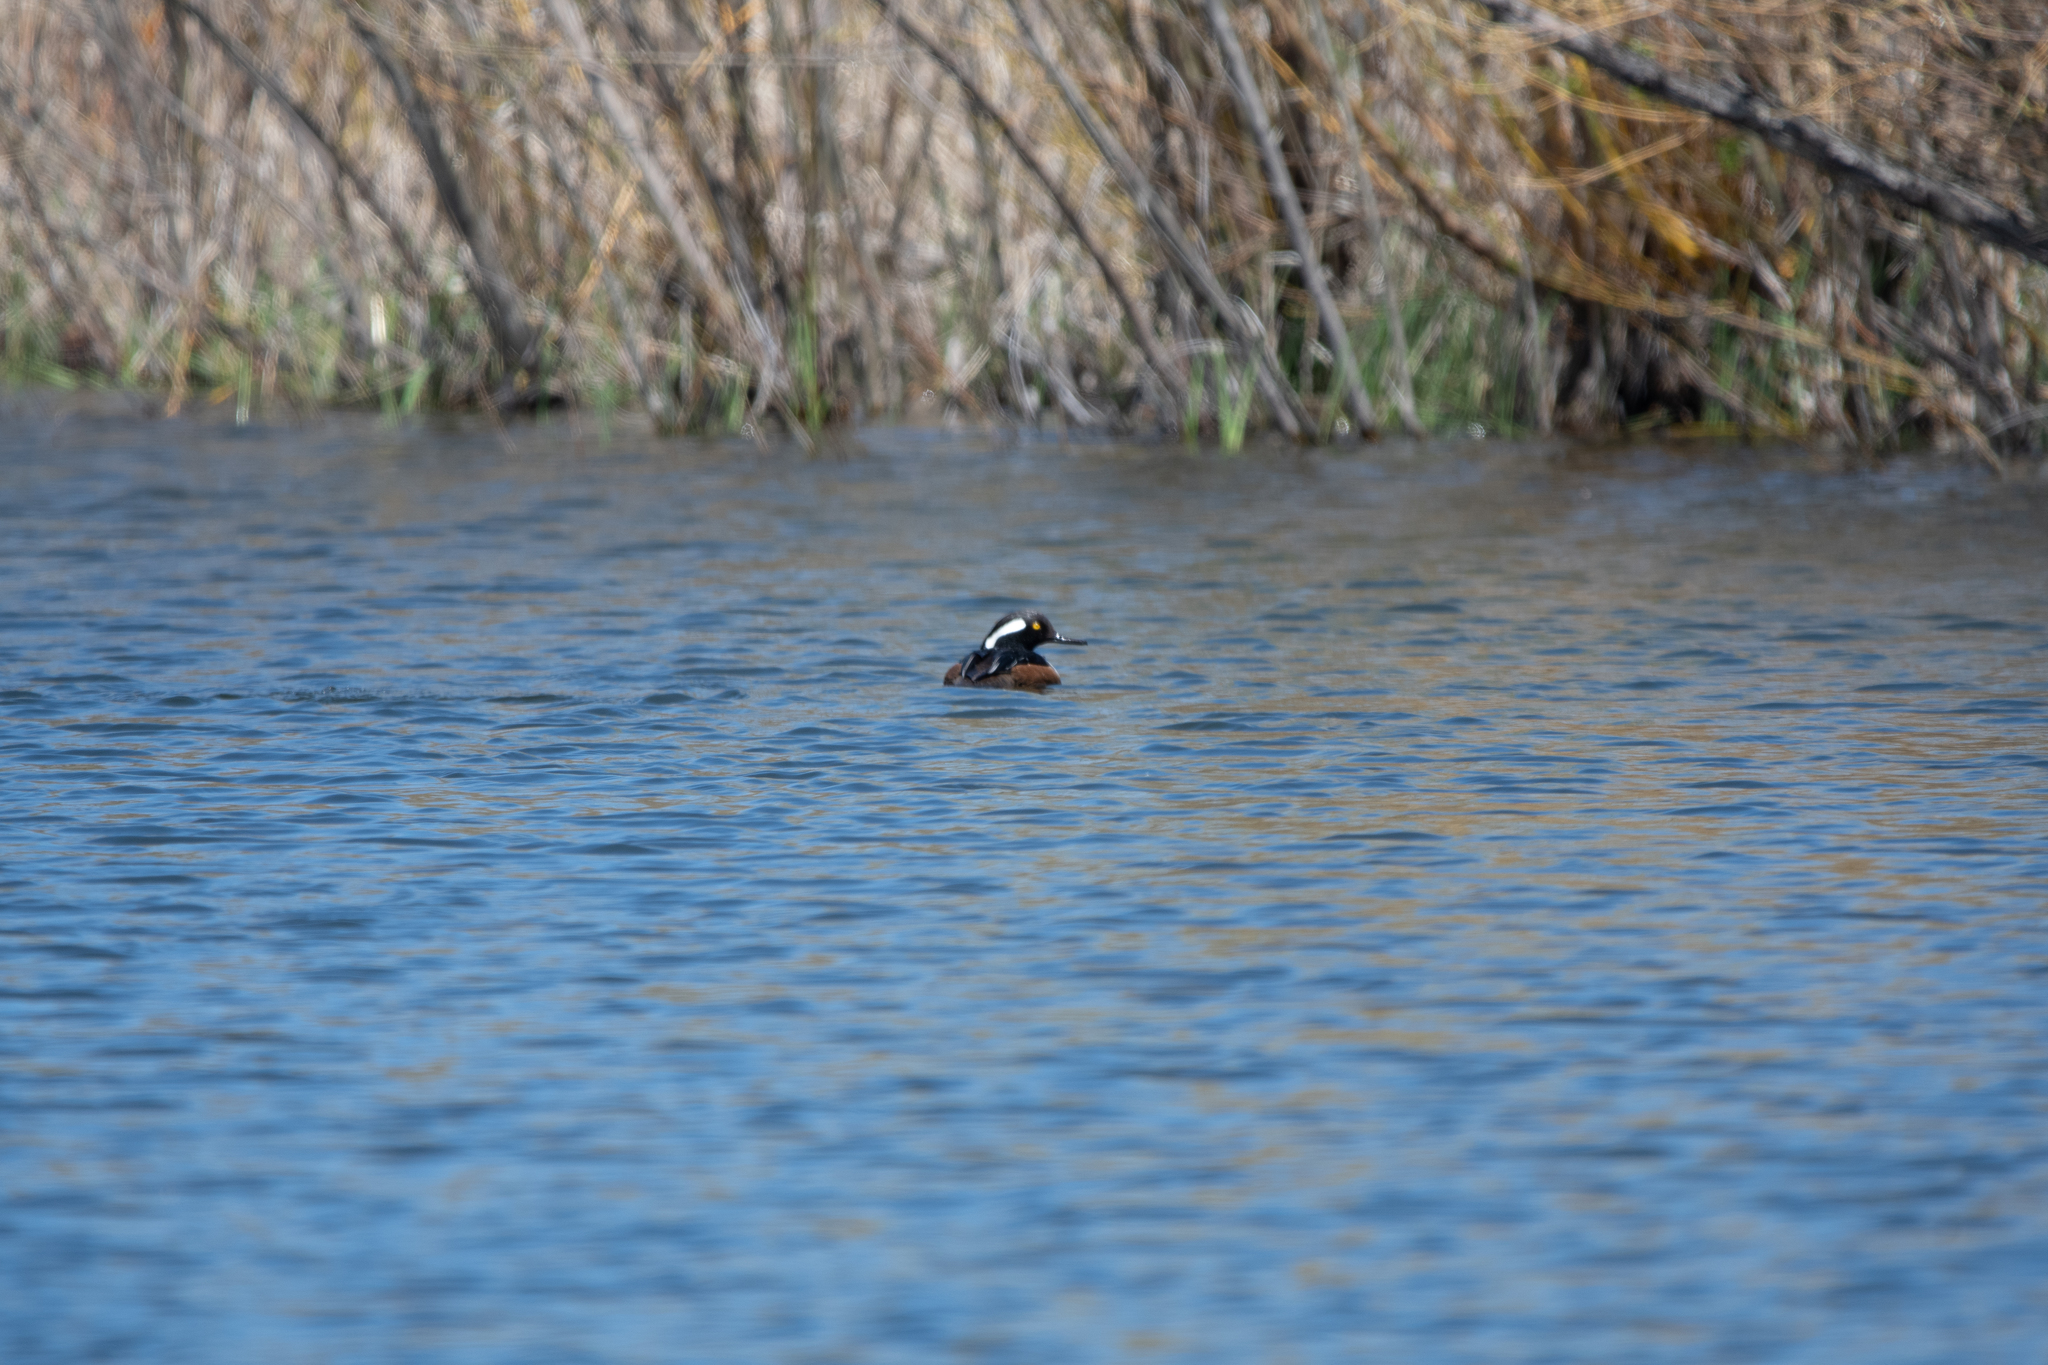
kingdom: Animalia
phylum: Chordata
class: Aves
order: Anseriformes
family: Anatidae
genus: Lophodytes
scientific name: Lophodytes cucullatus
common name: Hooded merganser
